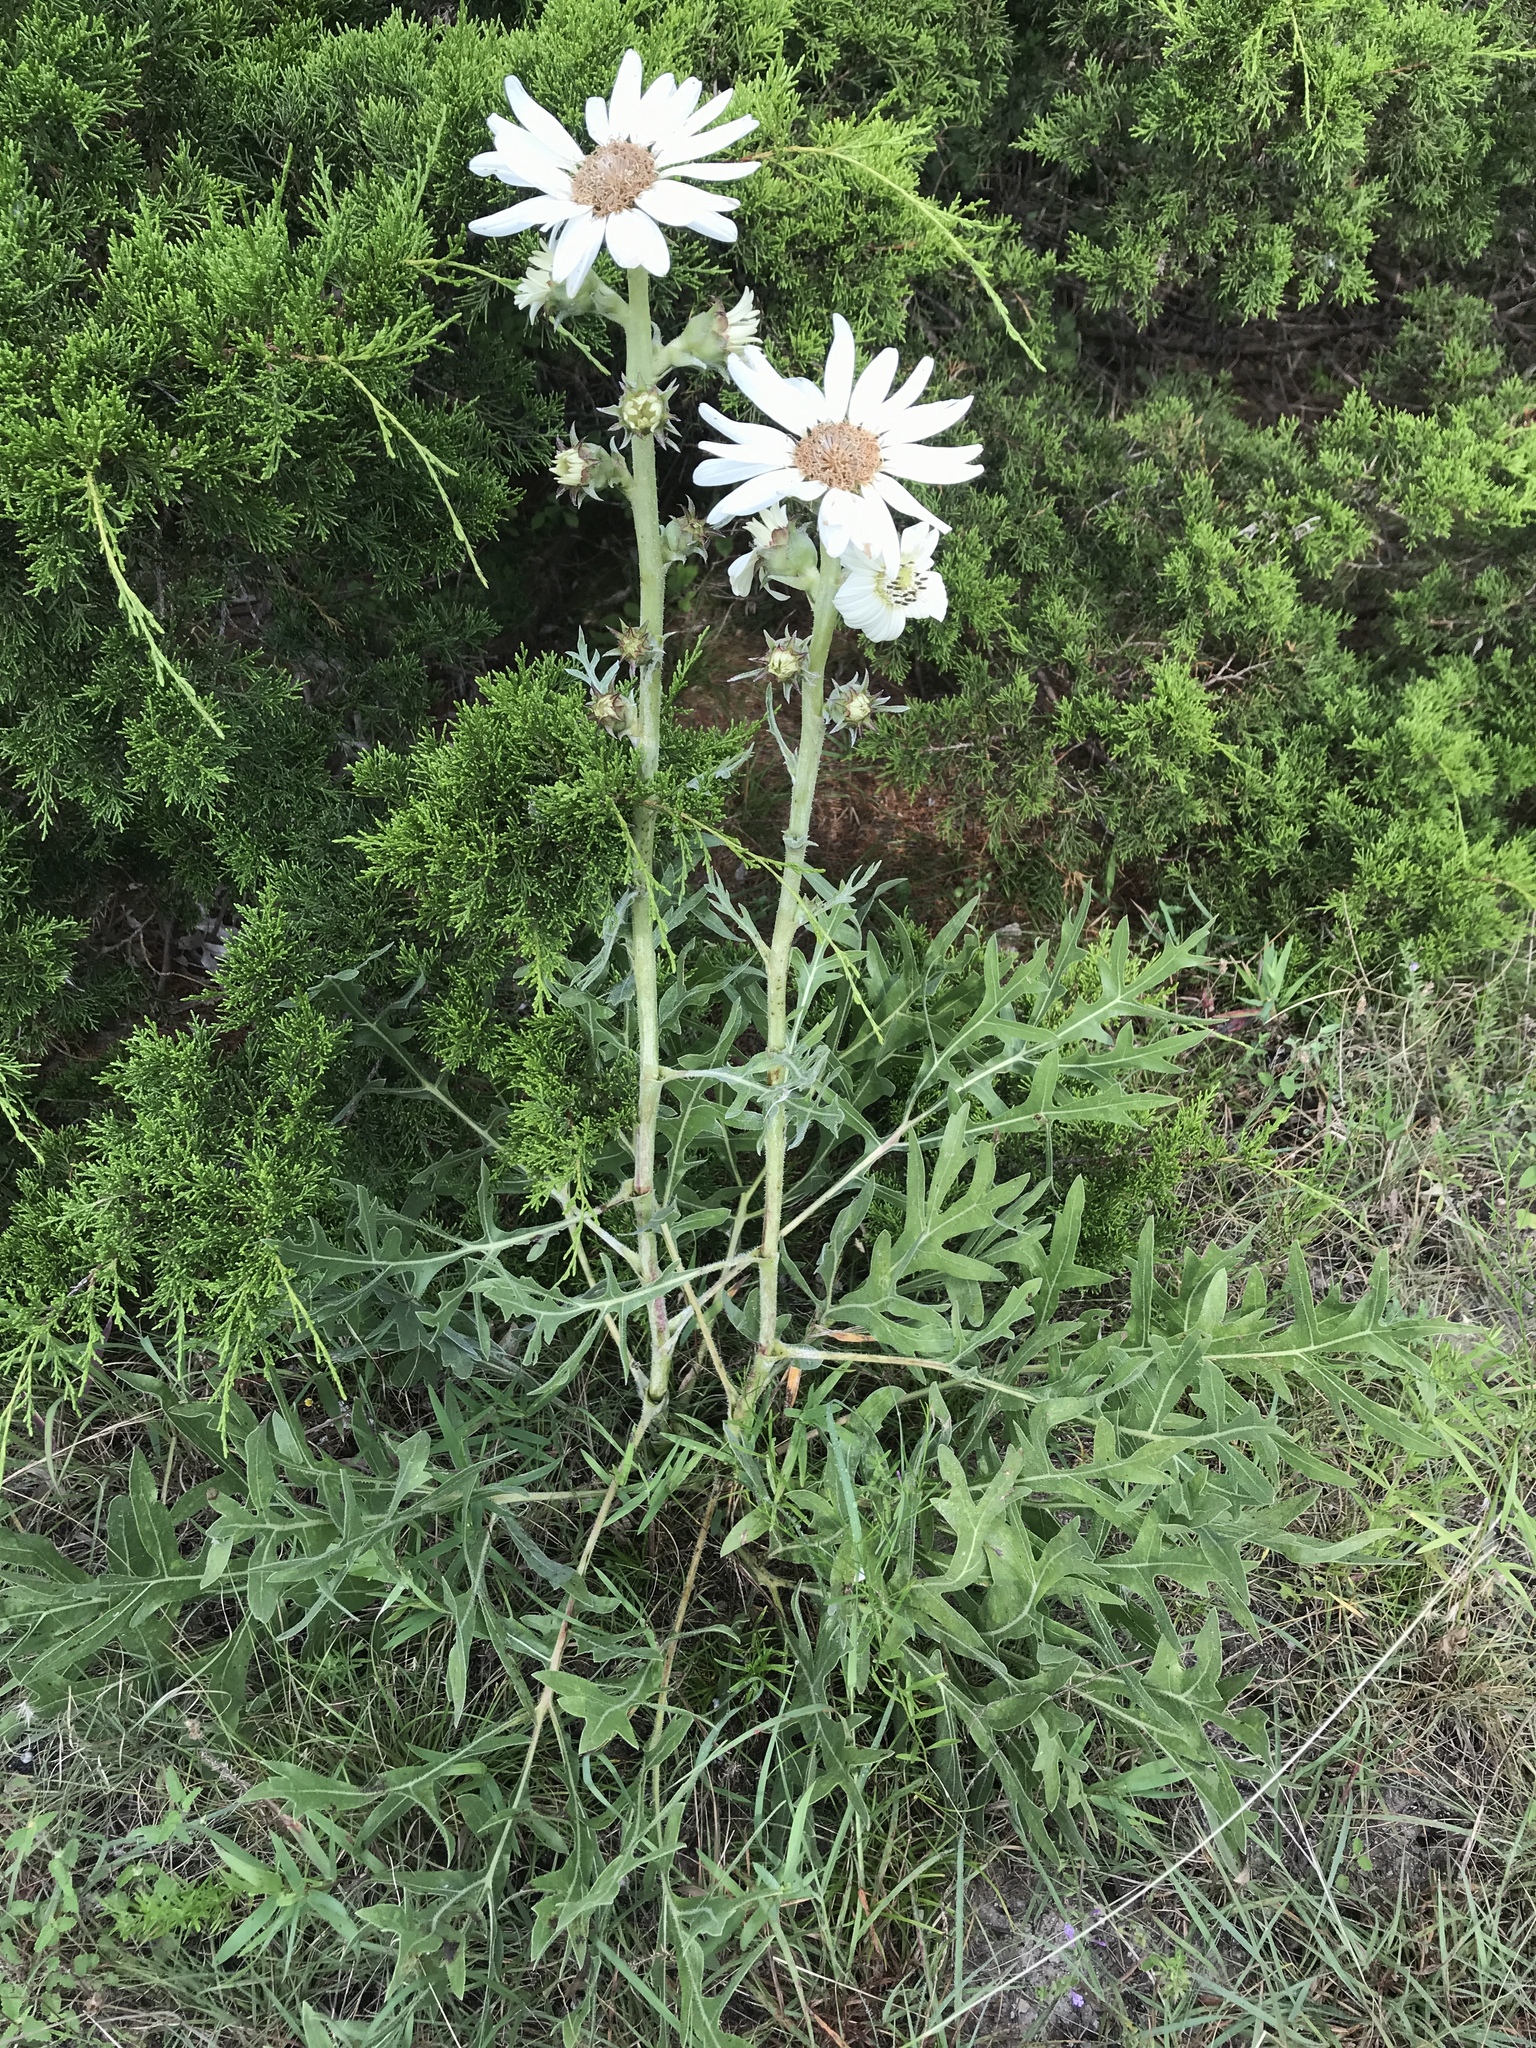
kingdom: Plantae
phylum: Tracheophyta
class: Magnoliopsida
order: Asterales
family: Asteraceae
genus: Silphium
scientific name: Silphium albiflorum
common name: White rosinweed
